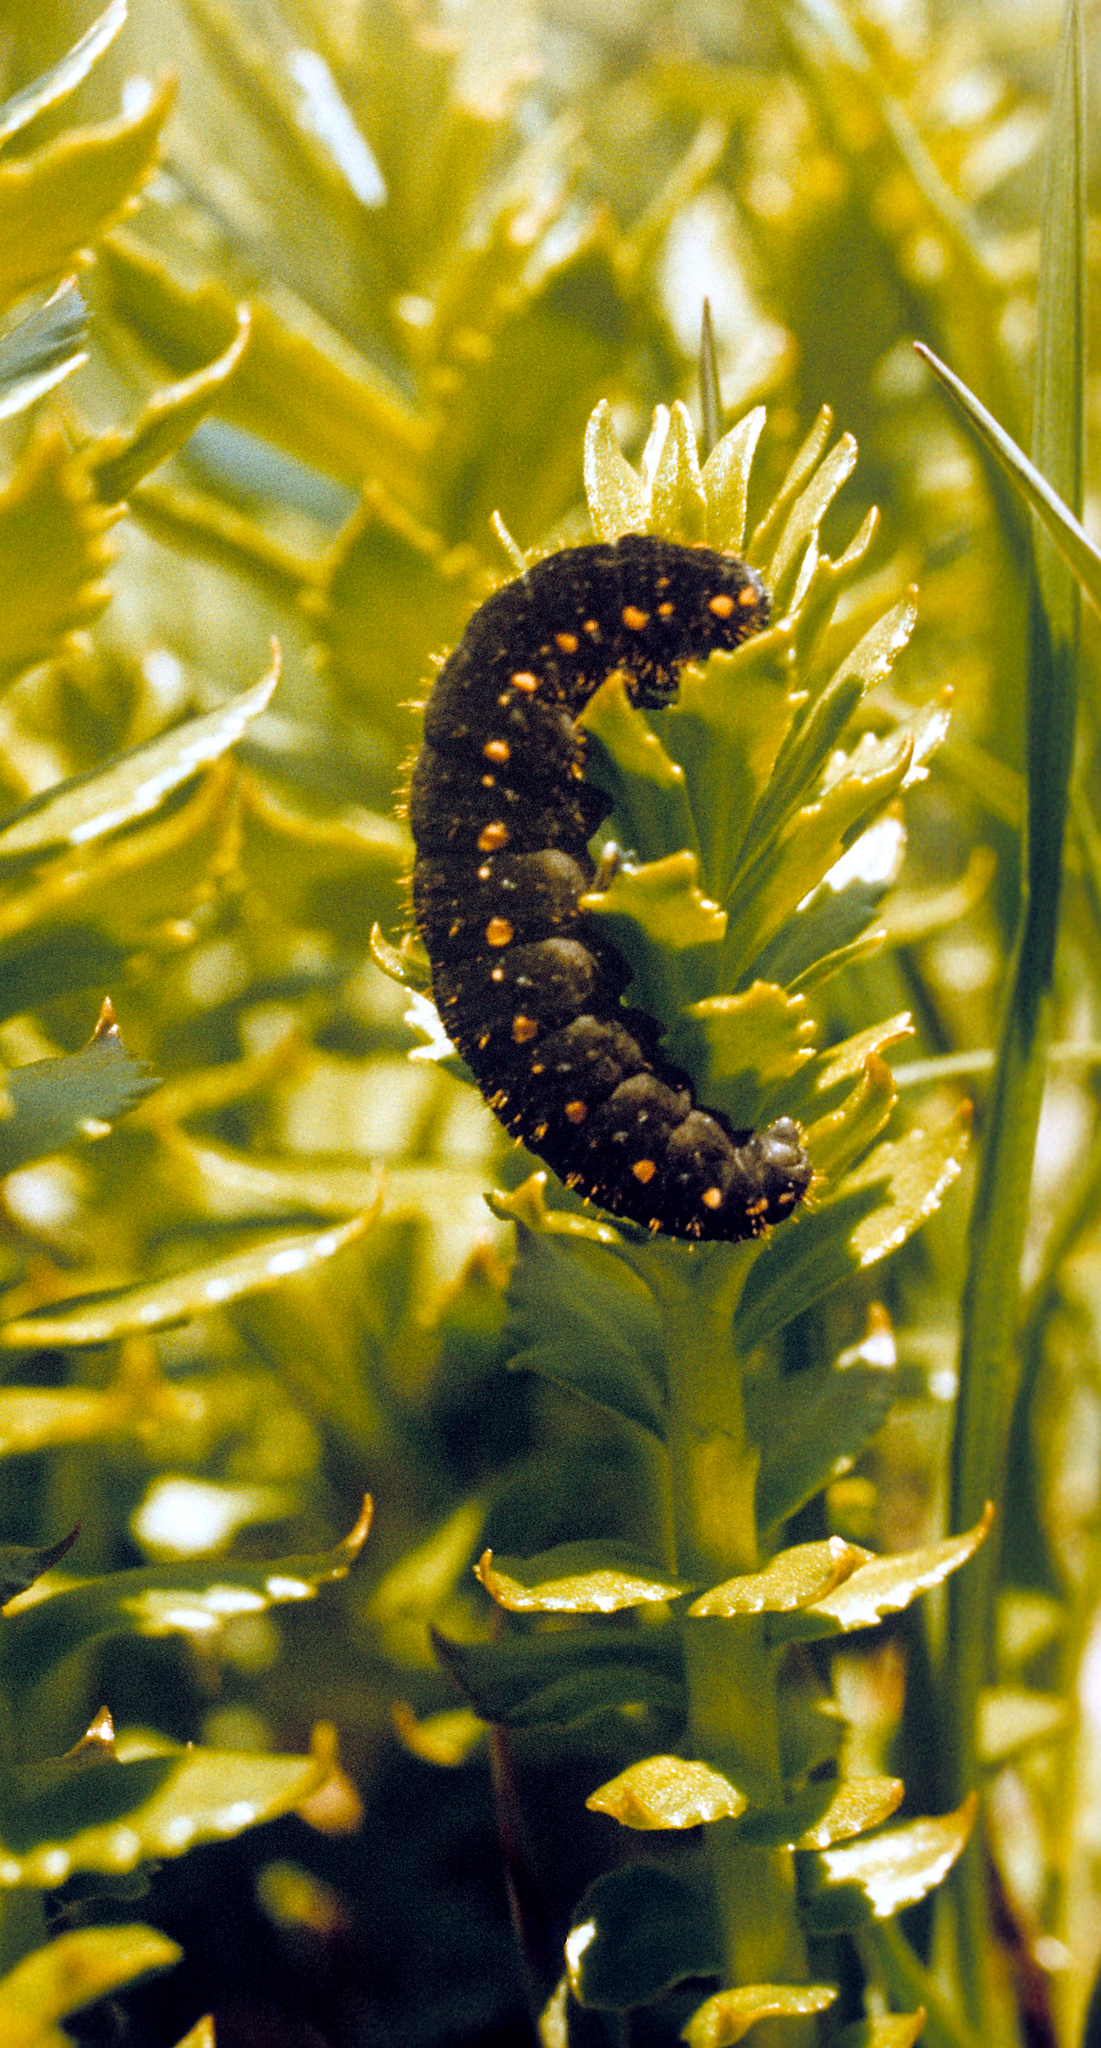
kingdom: Animalia
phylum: Arthropoda
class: Insecta
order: Lepidoptera
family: Papilionidae
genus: Parnassius
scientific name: Parnassius tianschanicus
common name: Large keeled apollo
